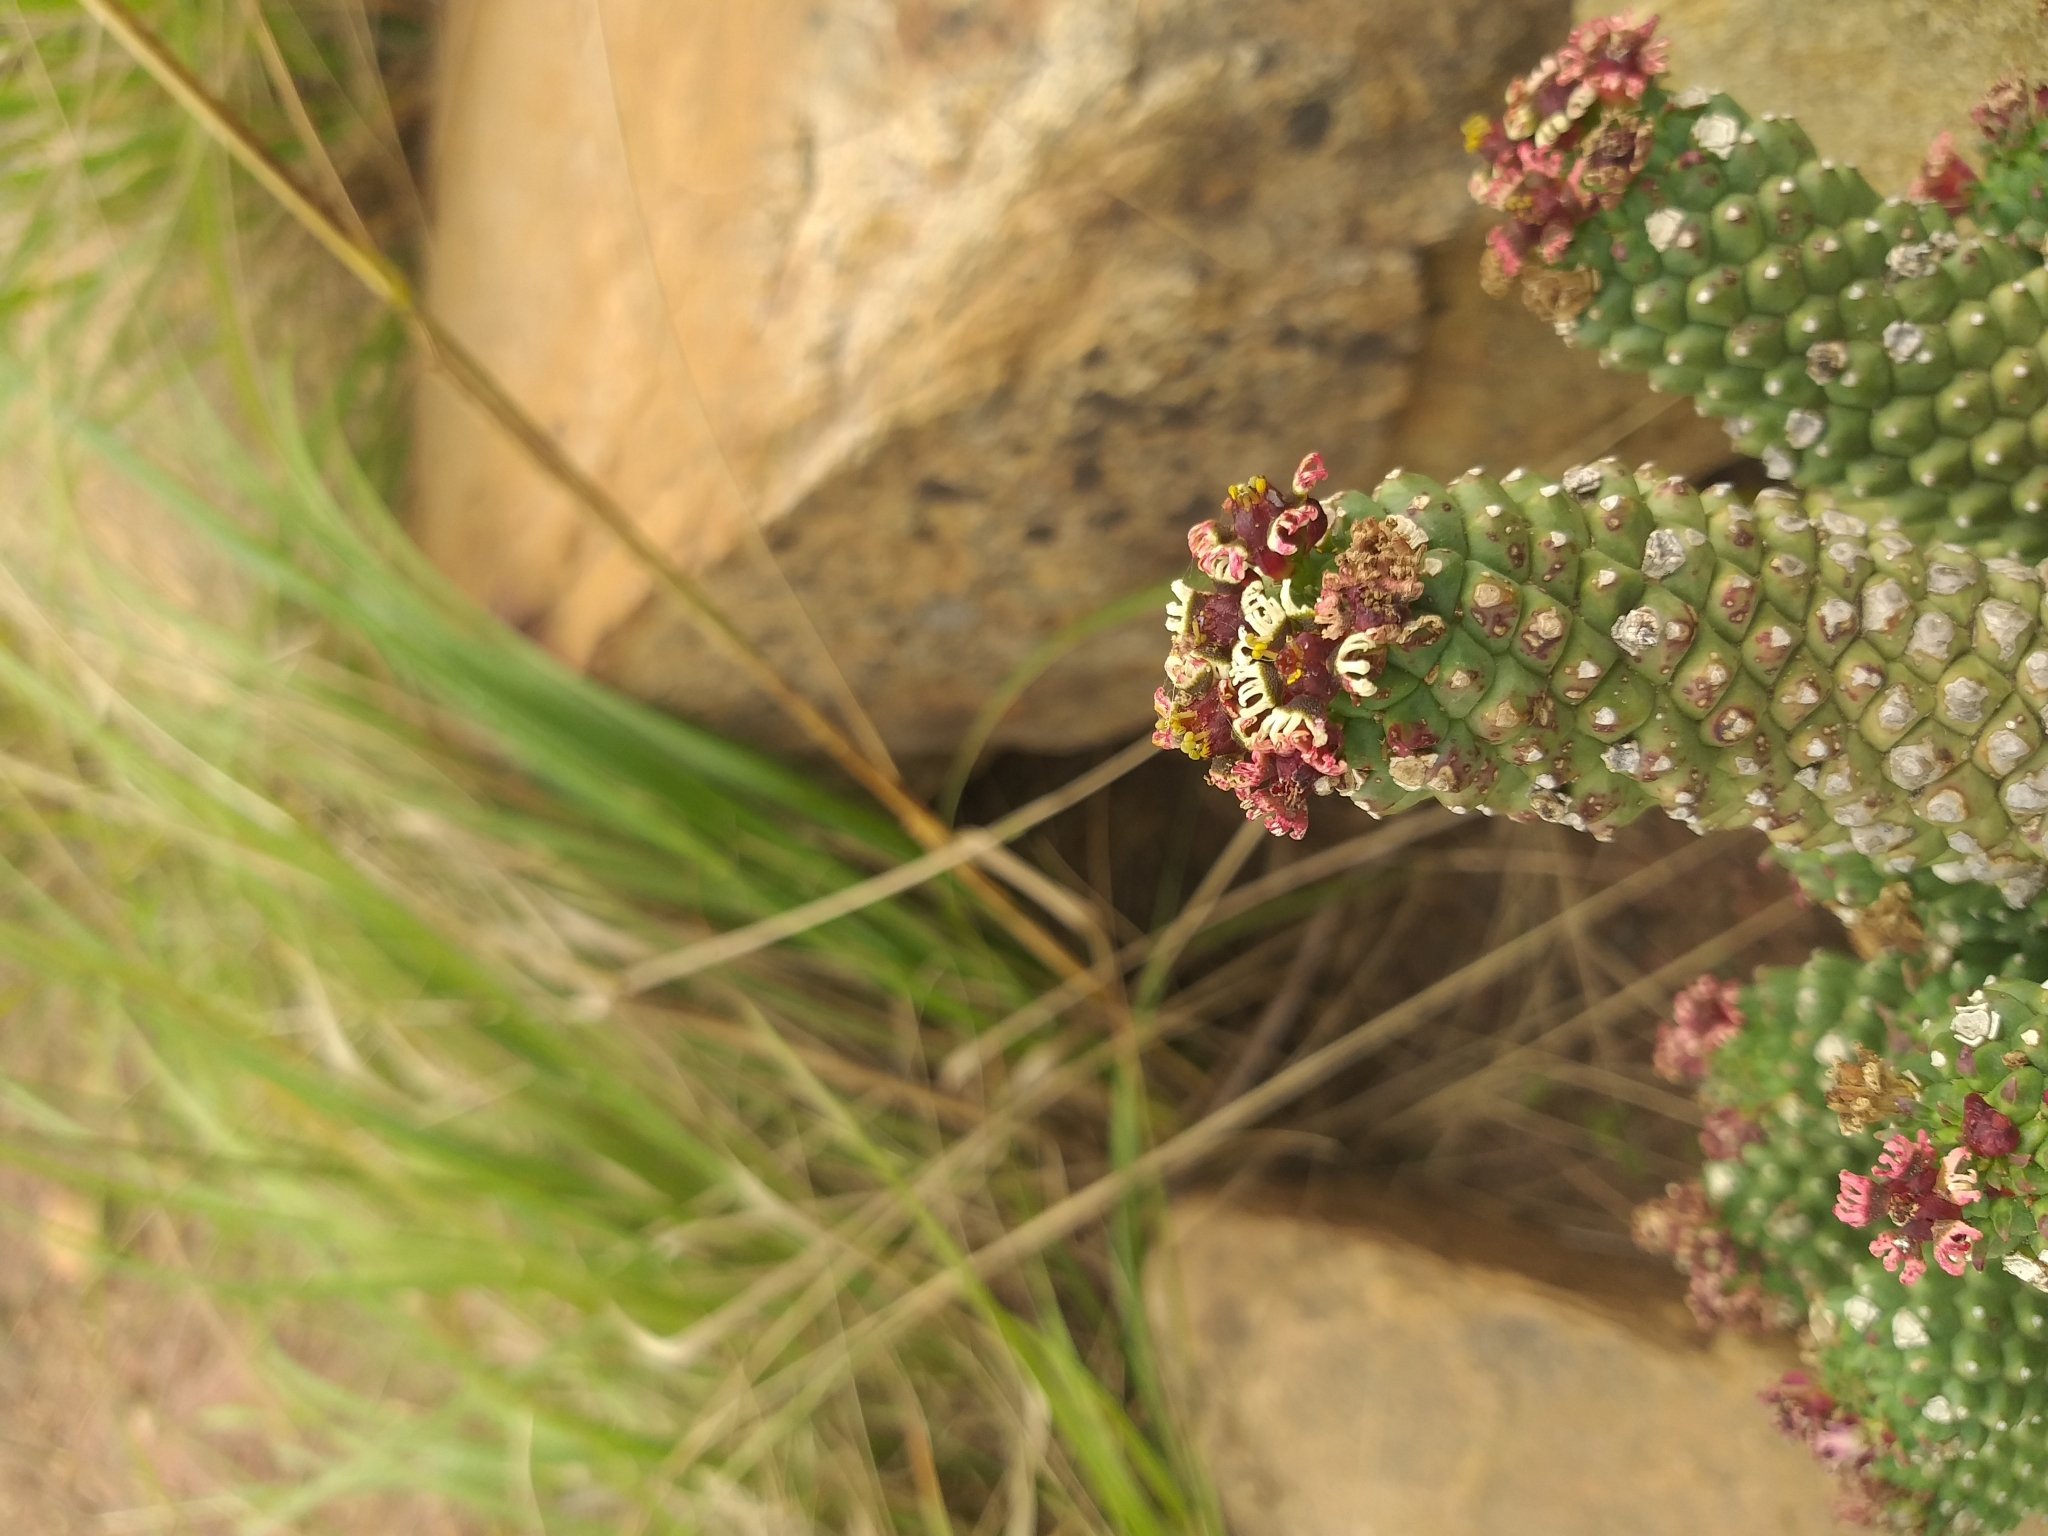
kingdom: Plantae
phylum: Tracheophyta
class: Magnoliopsida
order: Malpighiales
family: Euphorbiaceae
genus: Euphorbia
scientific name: Euphorbia caput-medusae
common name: Medusa's-head
